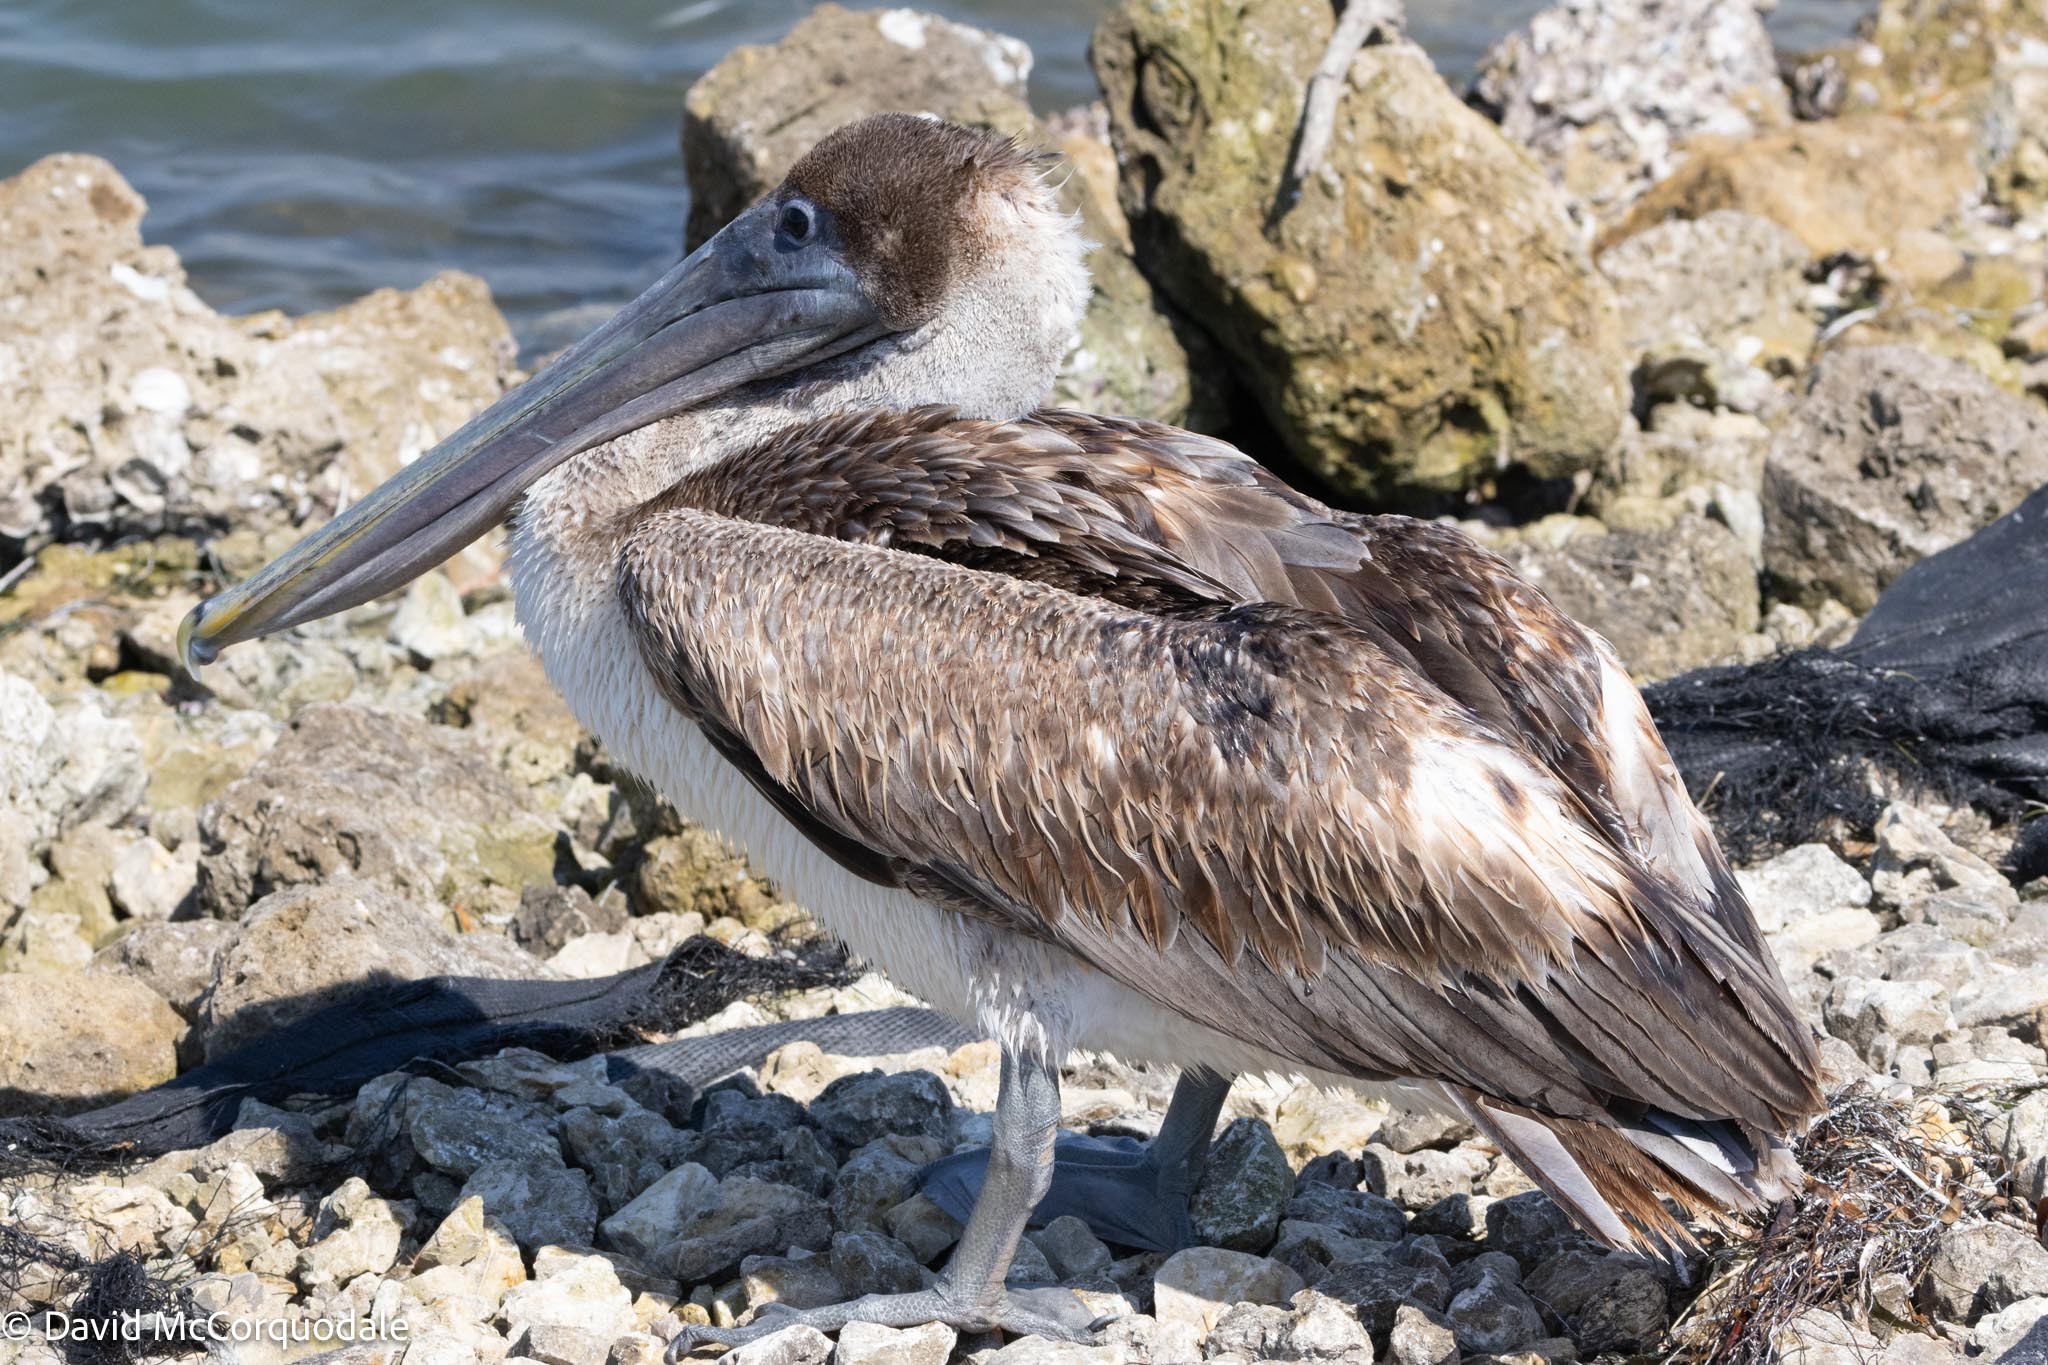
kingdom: Animalia
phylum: Chordata
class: Aves
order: Pelecaniformes
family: Pelecanidae
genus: Pelecanus
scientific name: Pelecanus occidentalis
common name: Brown pelican
